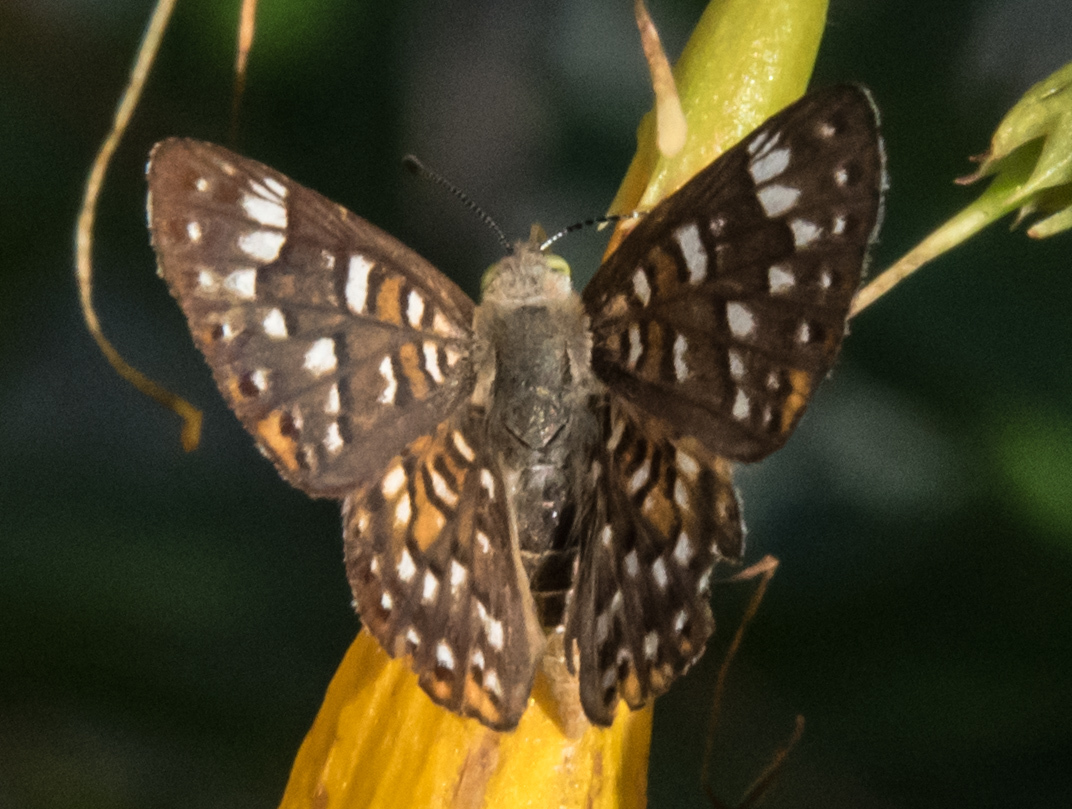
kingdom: Animalia
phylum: Arthropoda
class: Insecta
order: Lepidoptera
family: Riodinidae
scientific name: Riodinidae
